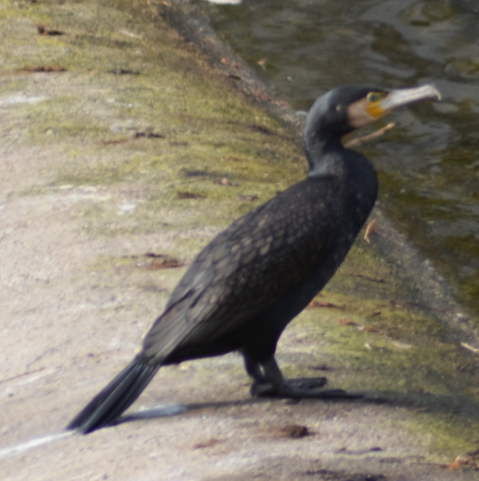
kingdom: Animalia
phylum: Chordata
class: Aves
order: Suliformes
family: Phalacrocoracidae
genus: Phalacrocorax
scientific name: Phalacrocorax carbo
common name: Great cormorant
